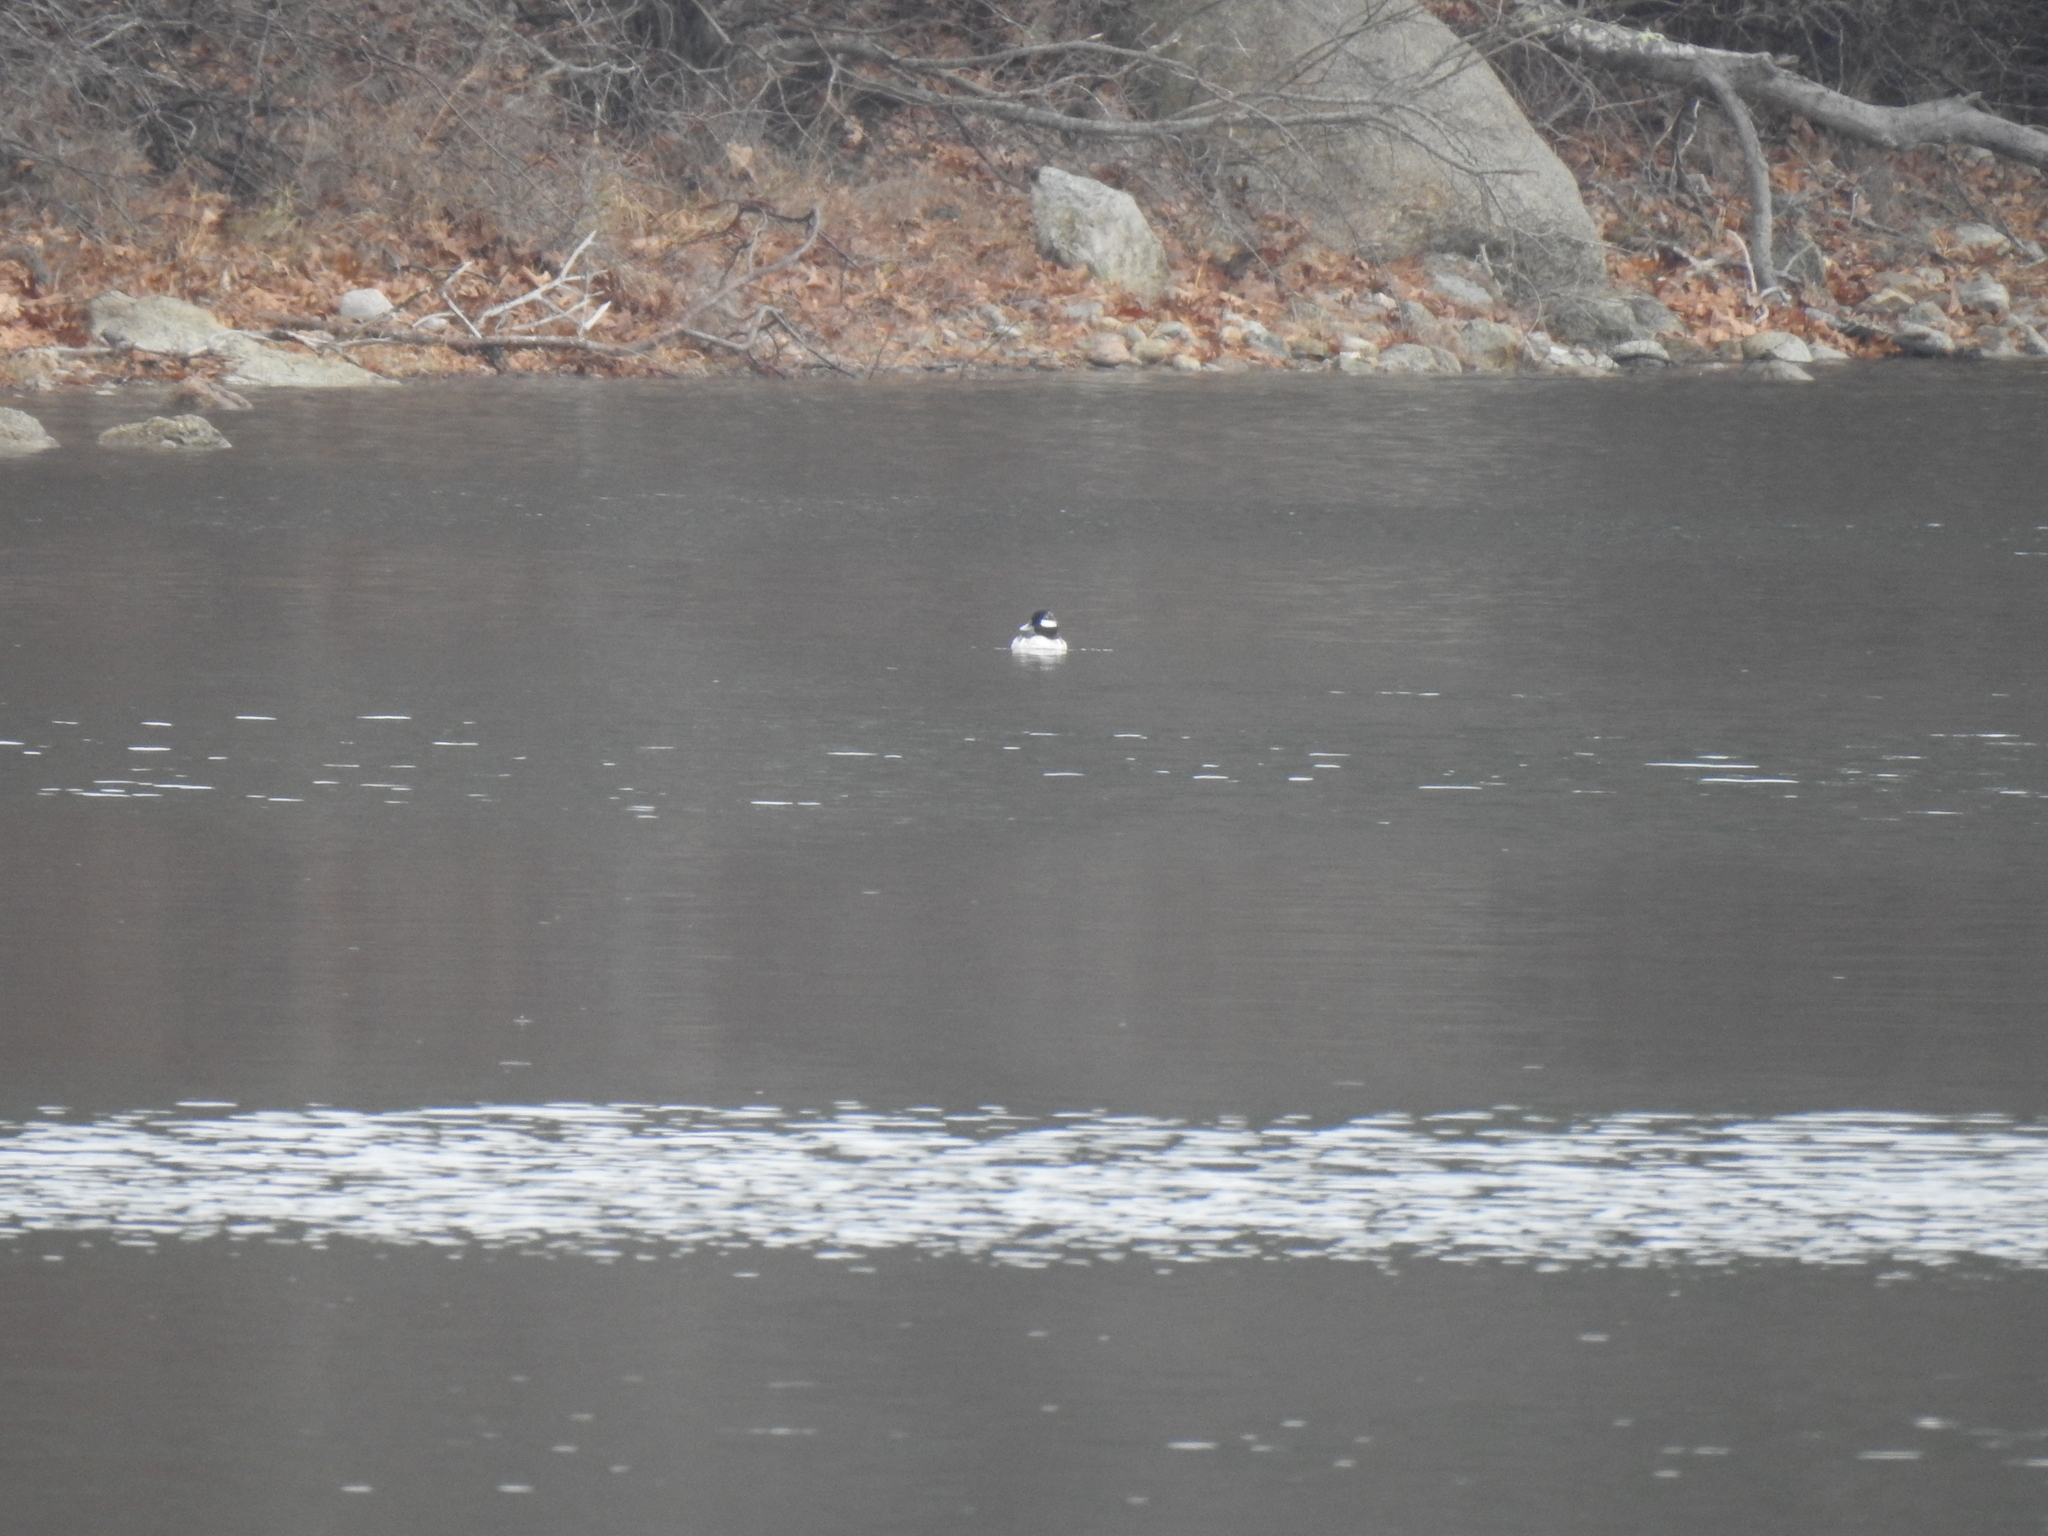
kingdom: Animalia
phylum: Chordata
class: Aves
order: Anseriformes
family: Anatidae
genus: Bucephala
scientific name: Bucephala albeola
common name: Bufflehead
